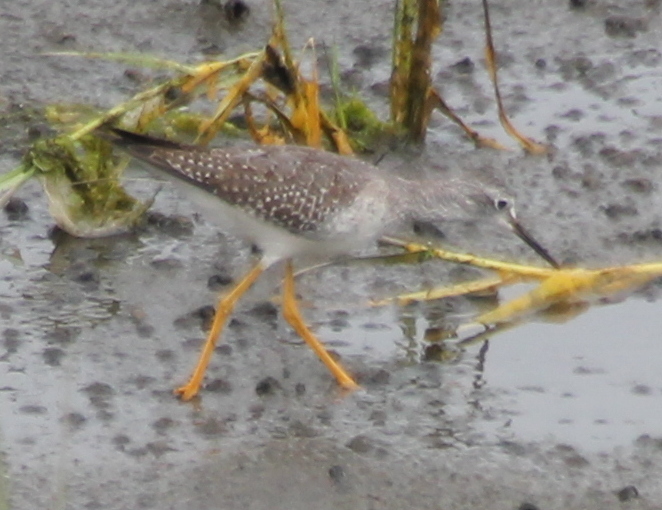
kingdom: Animalia
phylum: Chordata
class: Aves
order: Charadriiformes
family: Scolopacidae
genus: Tringa
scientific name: Tringa flavipes
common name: Lesser yellowlegs
